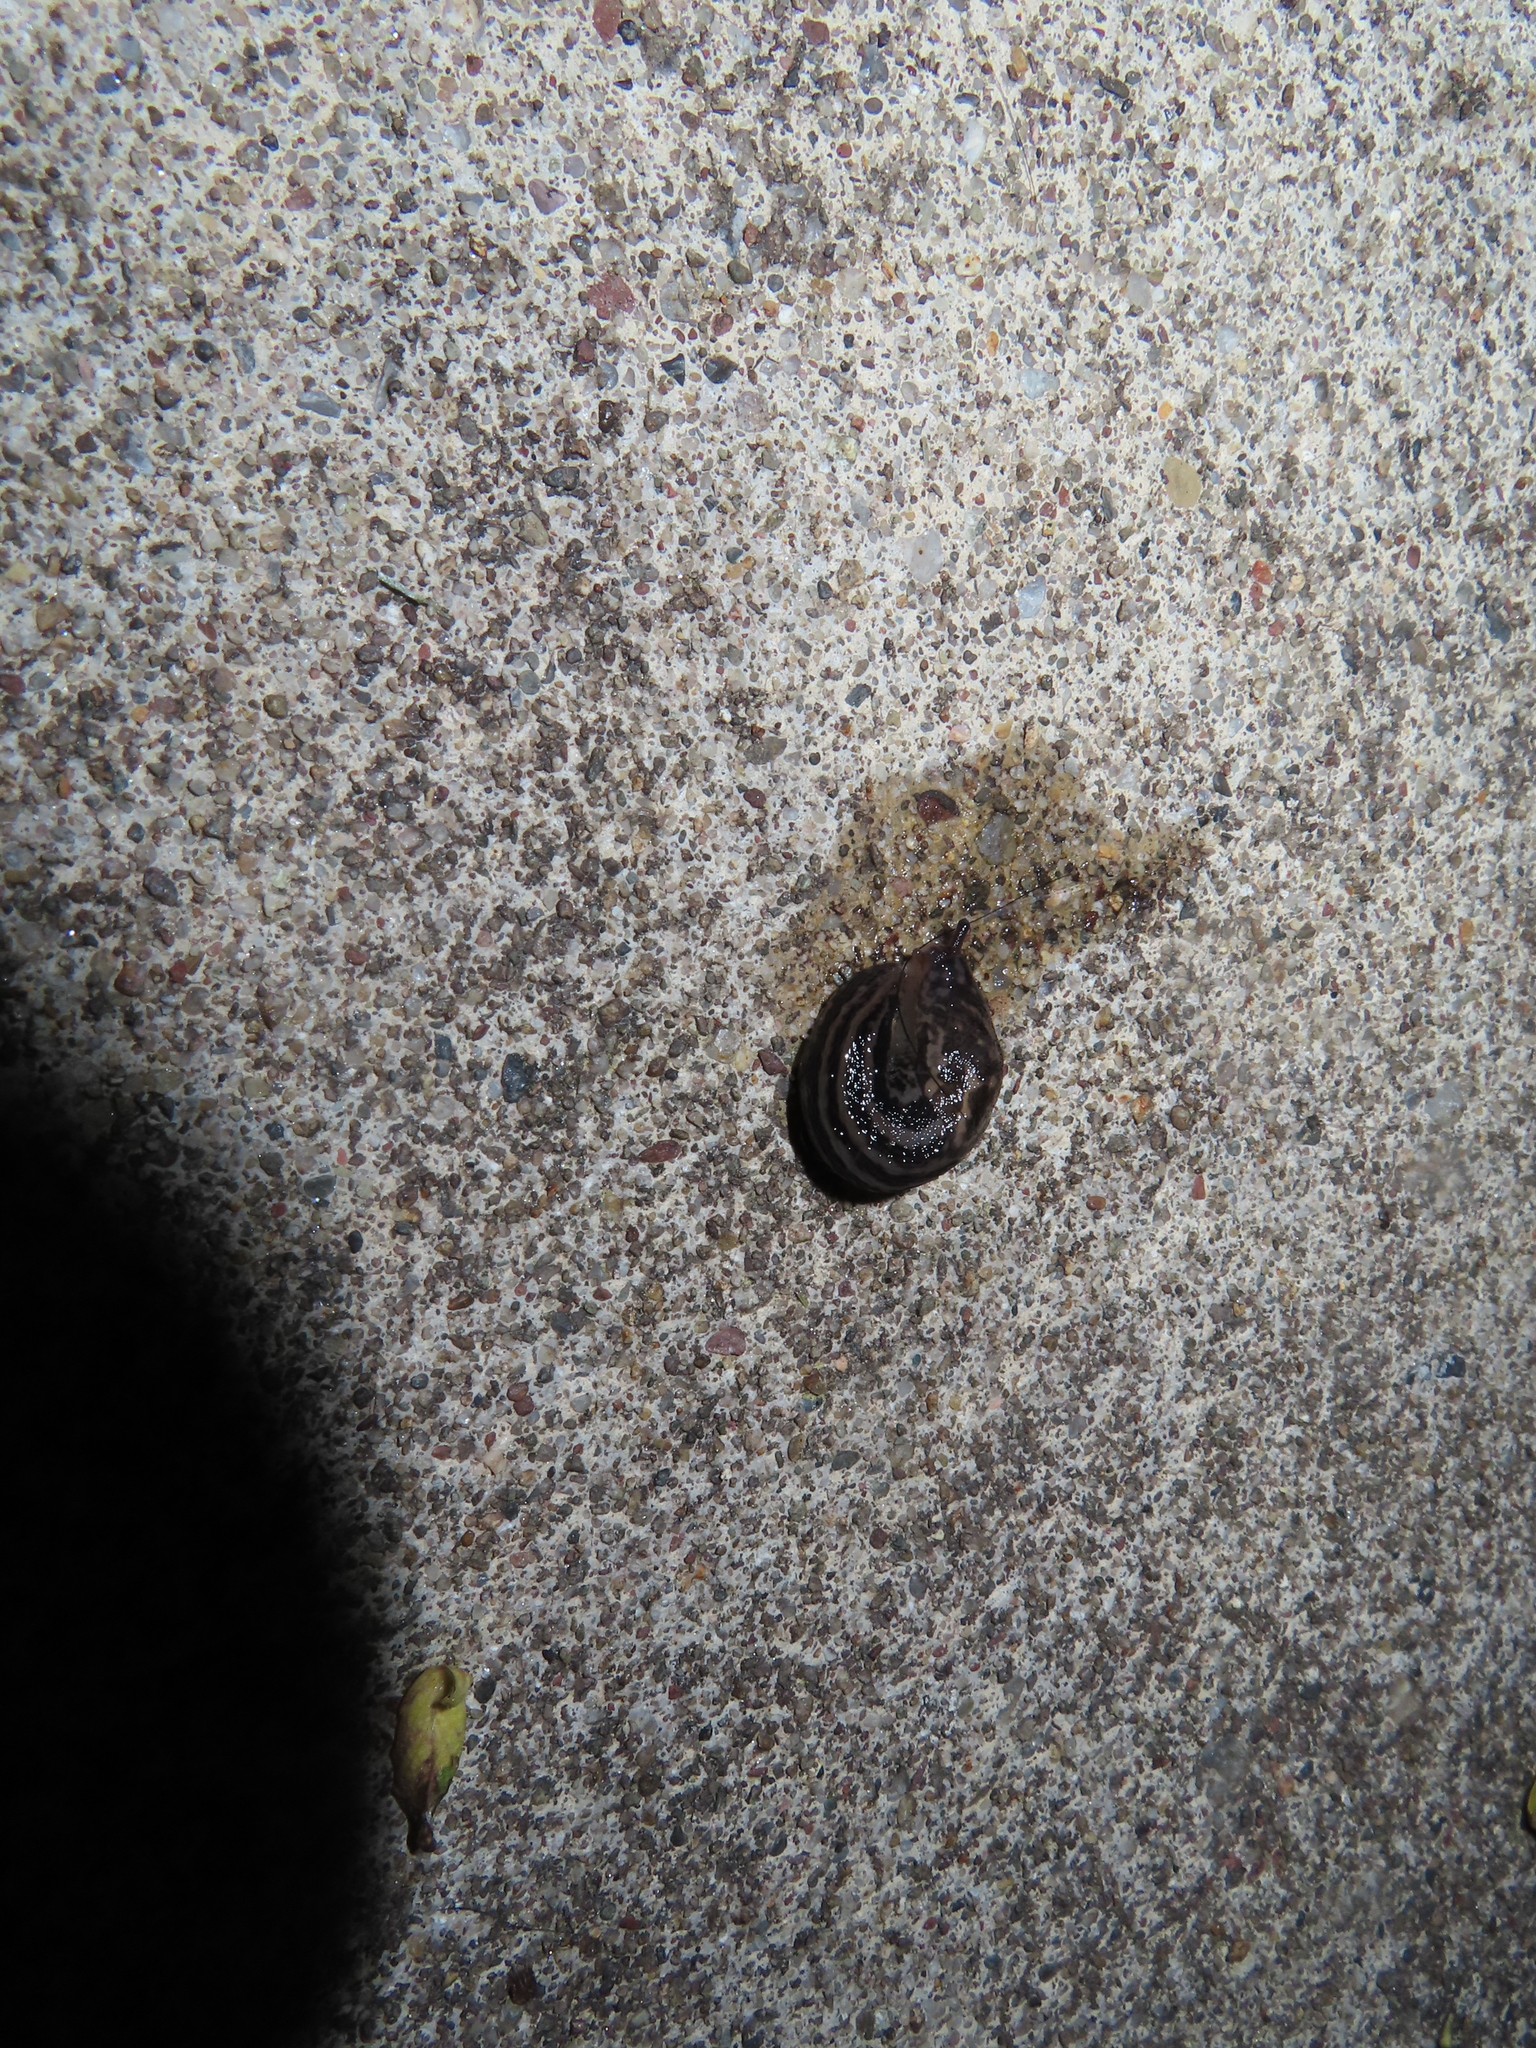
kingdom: Animalia
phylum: Mollusca
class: Gastropoda
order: Stylommatophora
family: Limacidae
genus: Limax
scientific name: Limax maximus
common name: Great grey slug
